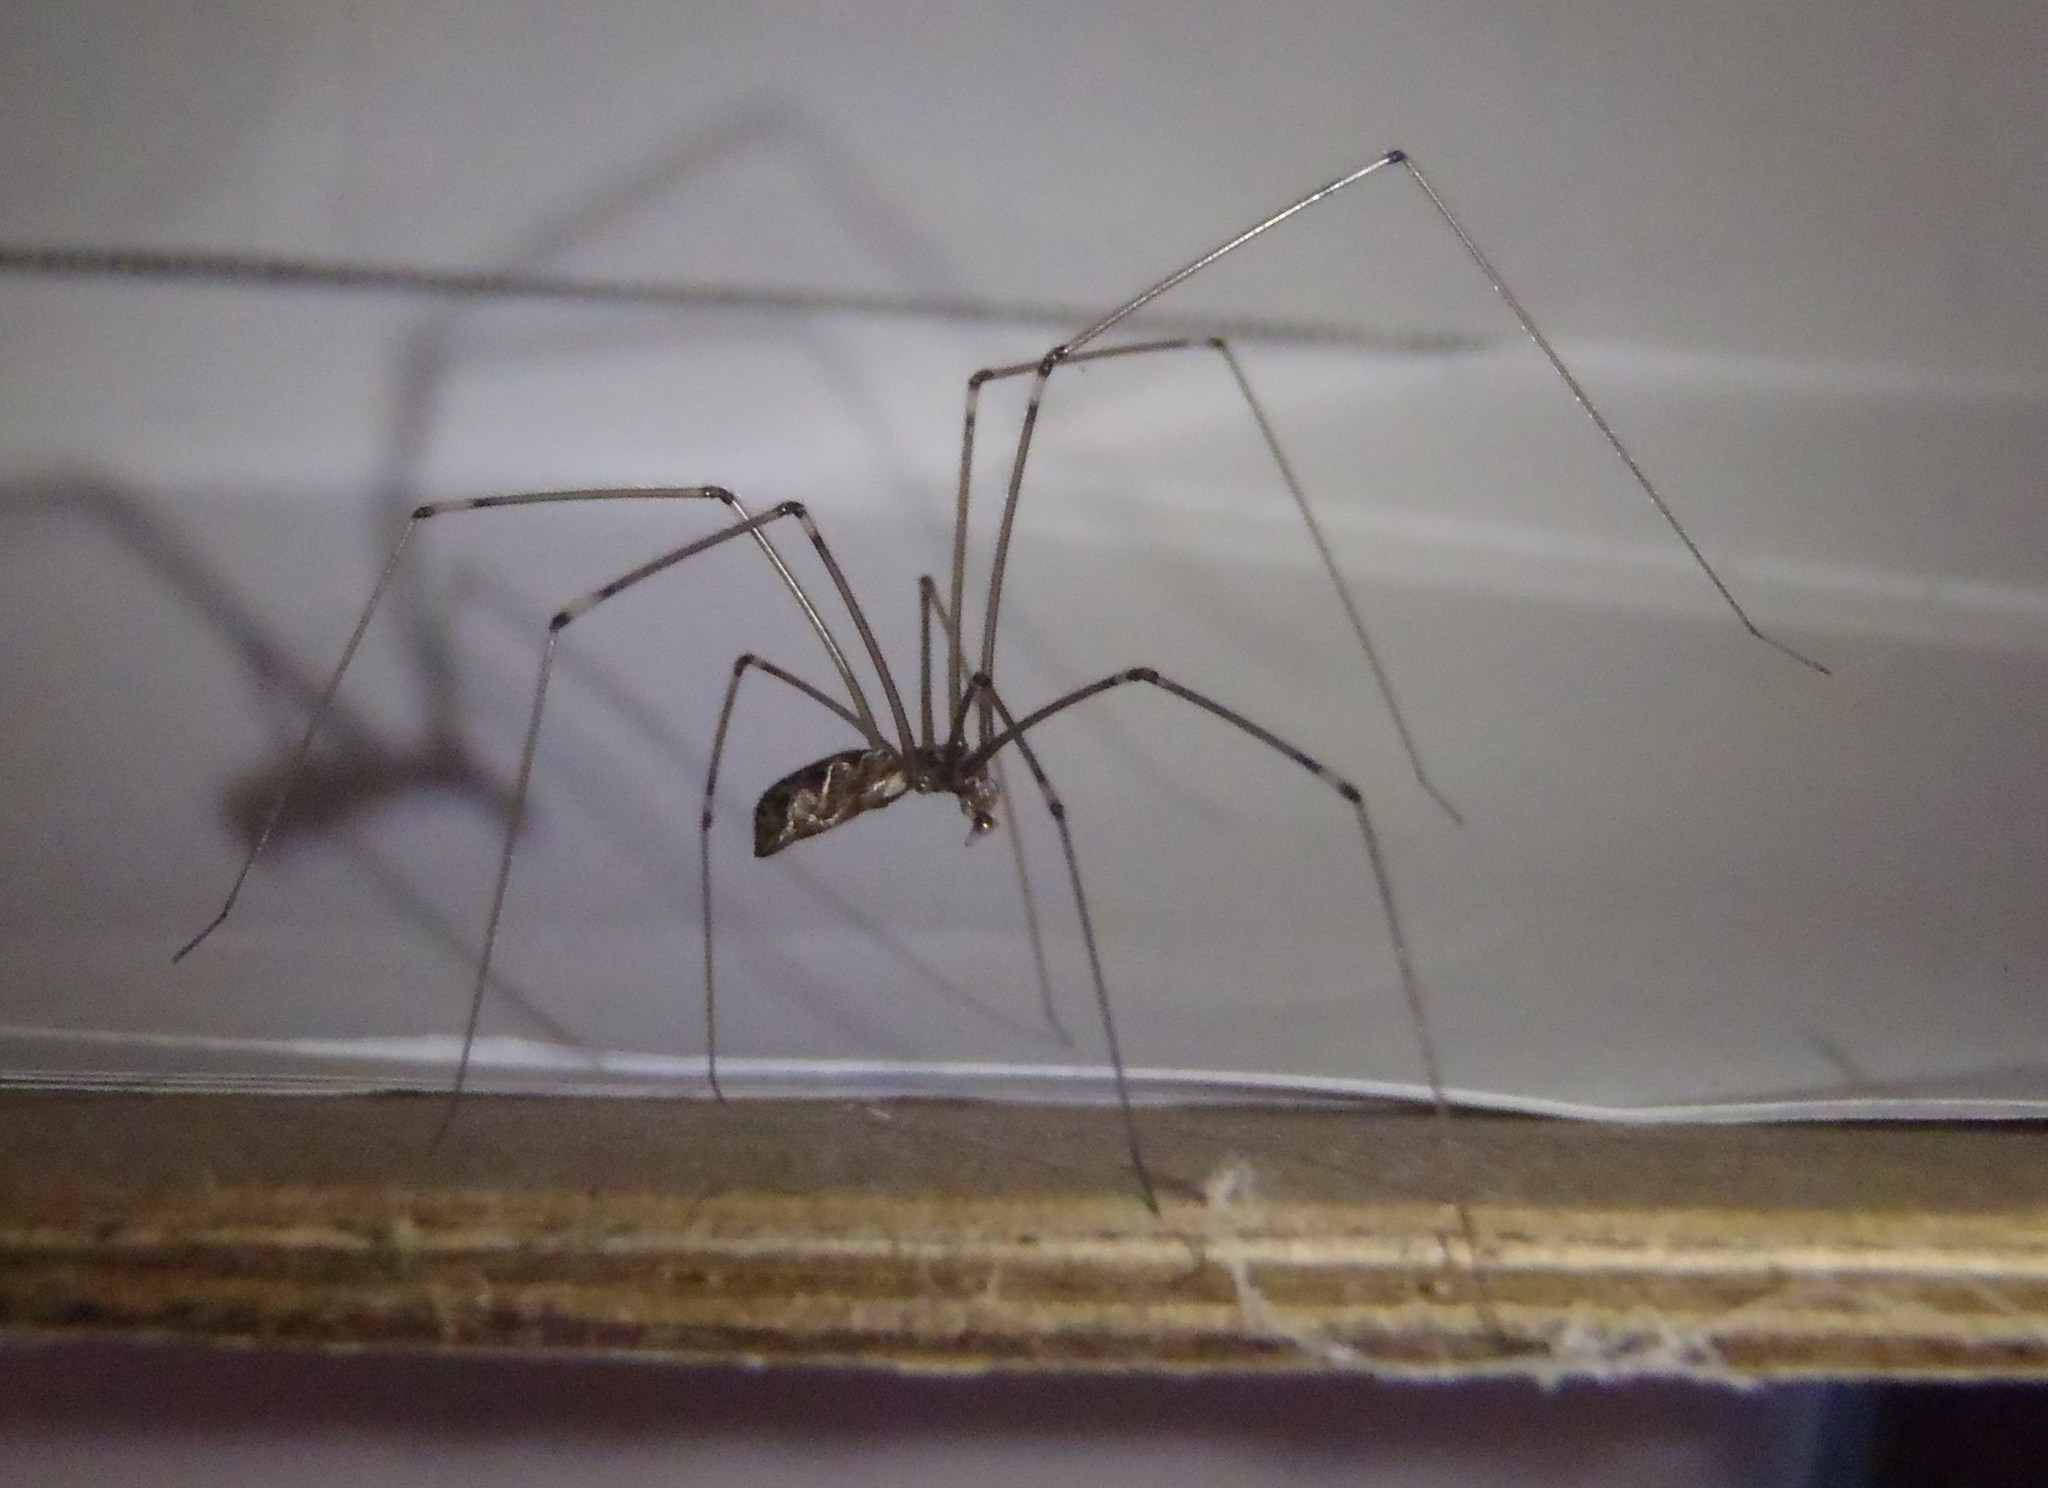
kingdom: Animalia
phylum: Arthropoda
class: Arachnida
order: Araneae
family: Pholcidae
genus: Smeringopus
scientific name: Smeringopus pallidus
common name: Cellar spider
